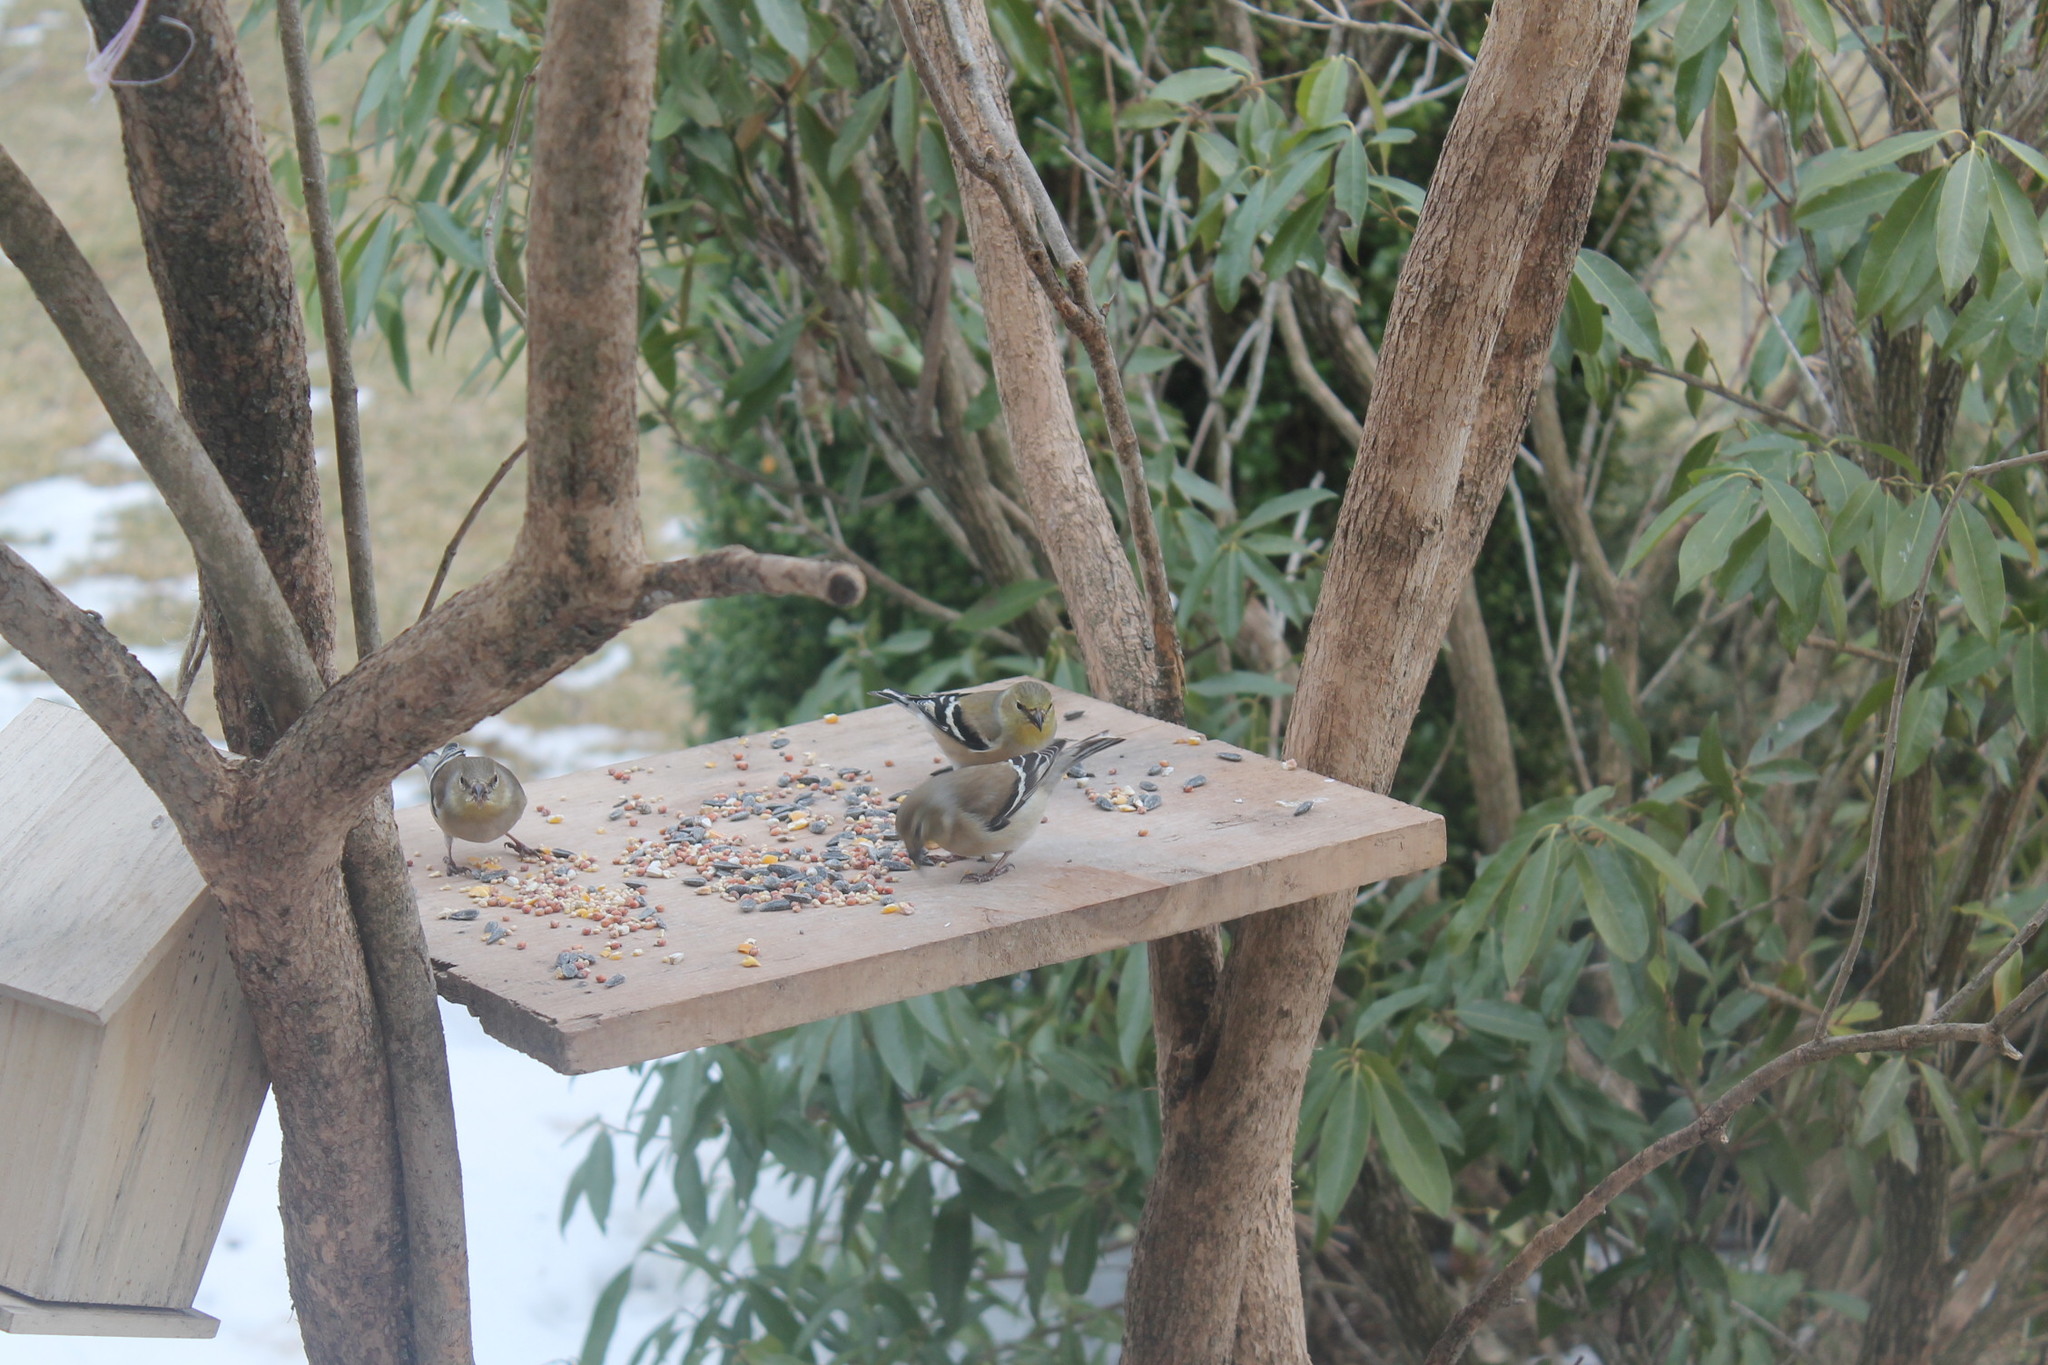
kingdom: Animalia
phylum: Chordata
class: Aves
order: Passeriformes
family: Fringillidae
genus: Spinus
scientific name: Spinus tristis
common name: American goldfinch
